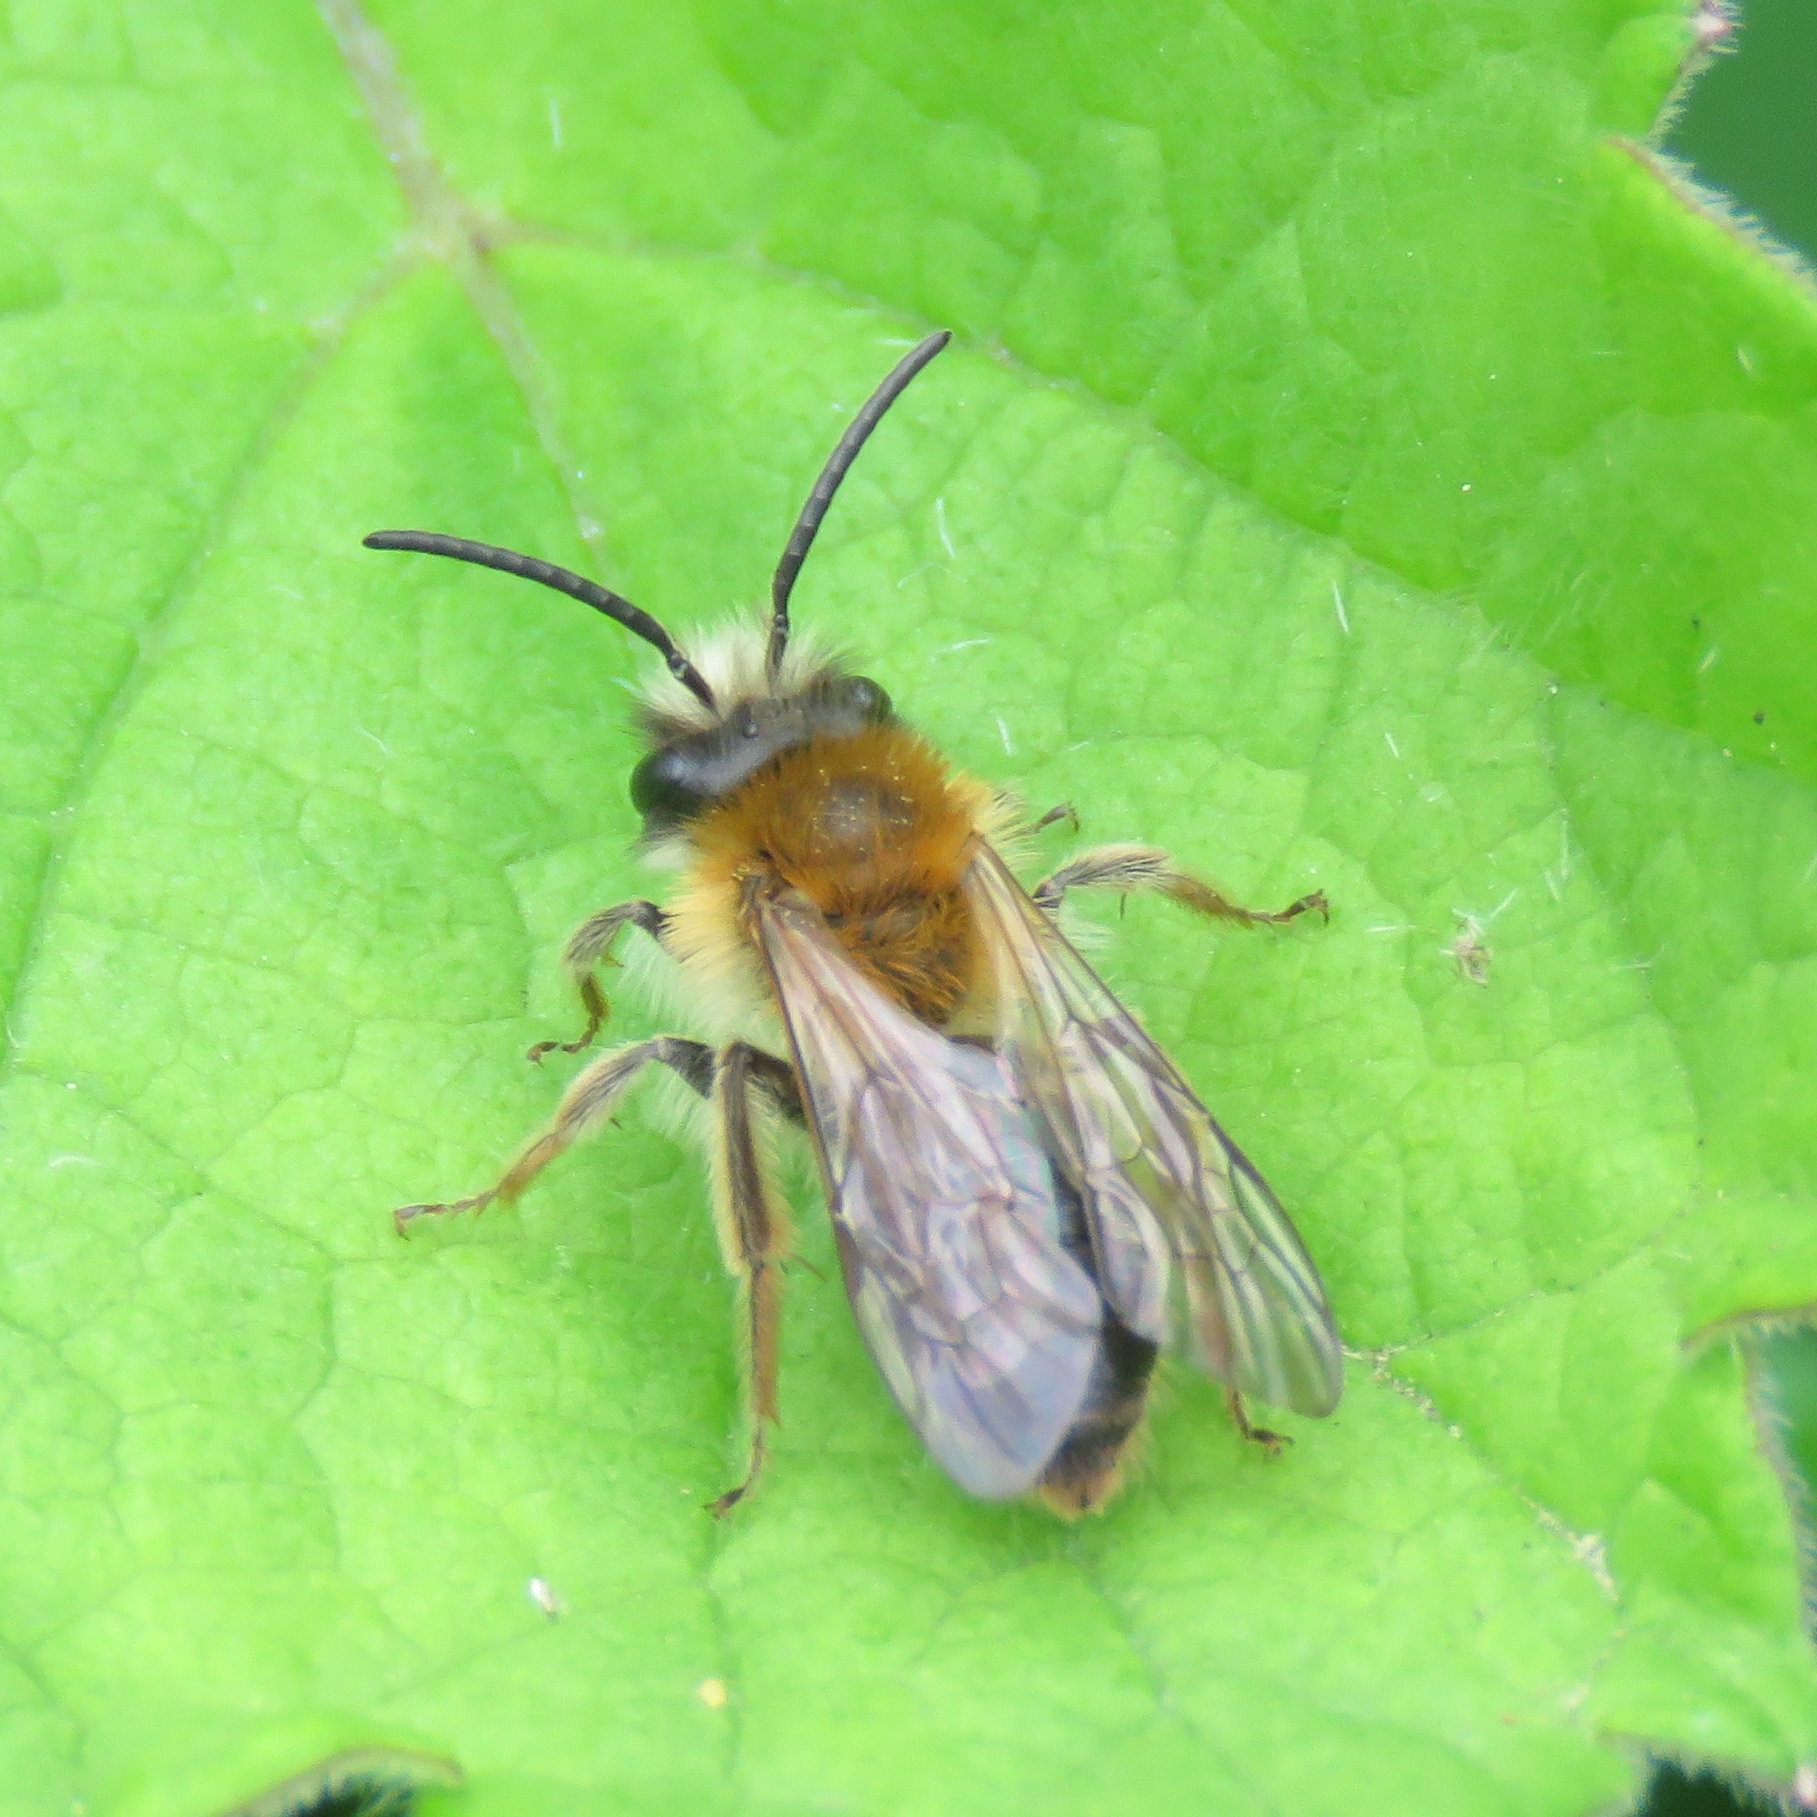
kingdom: Animalia
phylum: Arthropoda
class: Insecta
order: Hymenoptera
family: Andrenidae
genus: Andrena
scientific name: Andrena haemorrhoa
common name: Early mining bee
